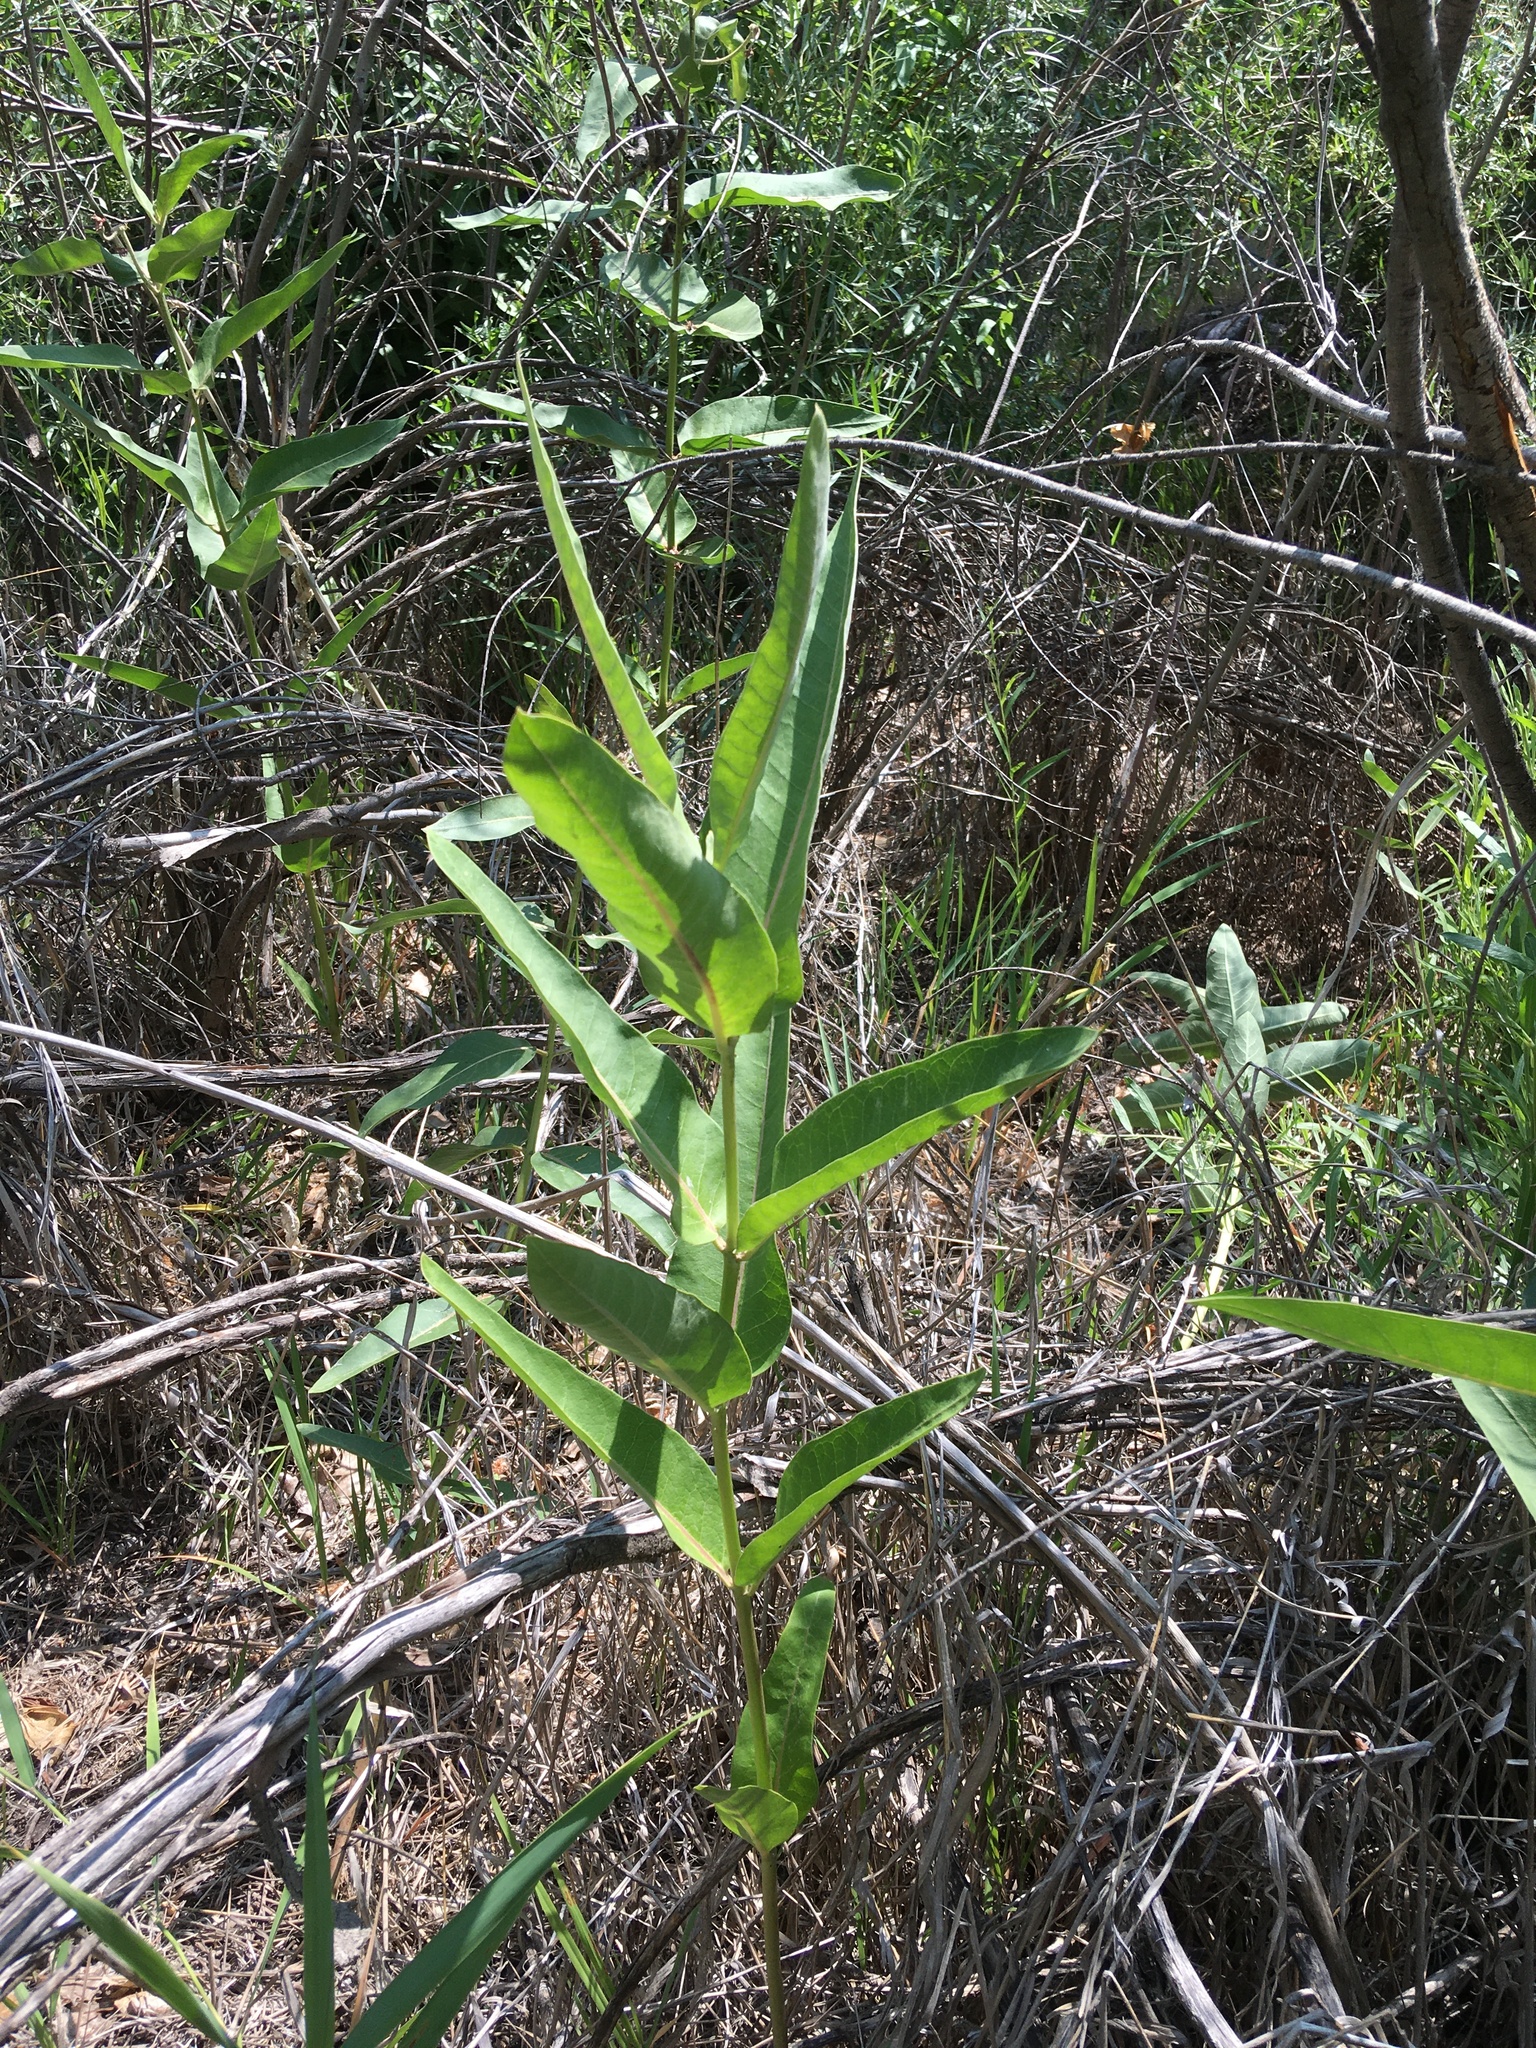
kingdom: Plantae
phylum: Tracheophyta
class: Magnoliopsida
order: Gentianales
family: Apocynaceae
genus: Asclepias
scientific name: Asclepias speciosa
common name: Showy milkweed
